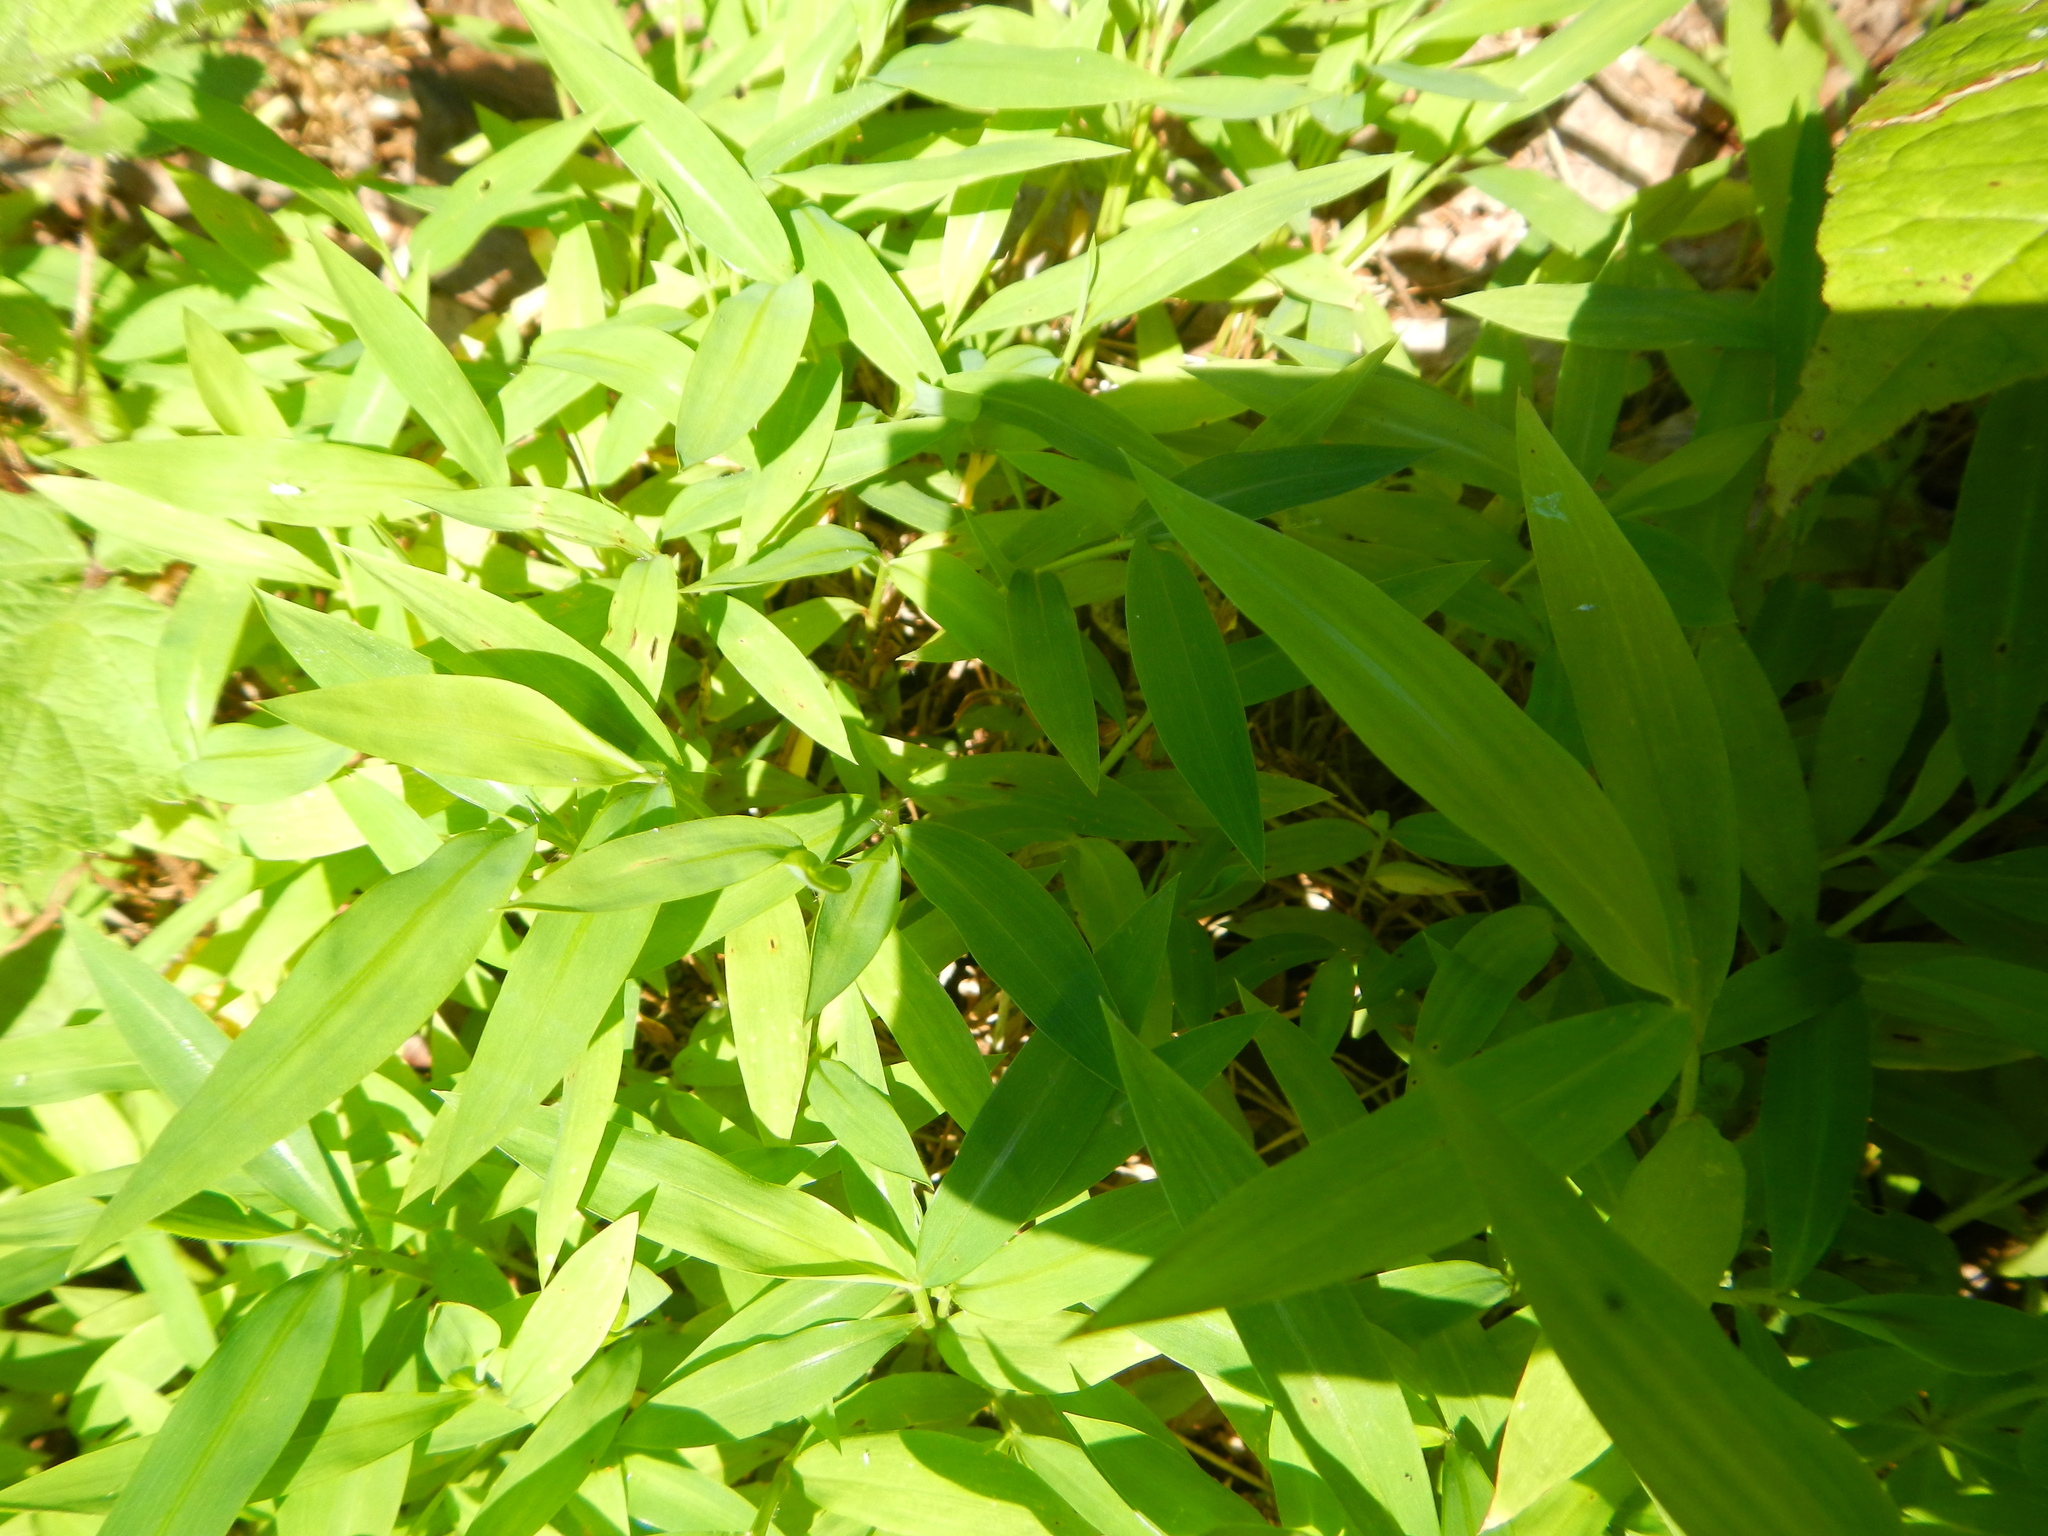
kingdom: Plantae
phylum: Tracheophyta
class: Liliopsida
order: Poales
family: Poaceae
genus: Microstegium
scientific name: Microstegium vimineum
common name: Japanese stiltgrass
